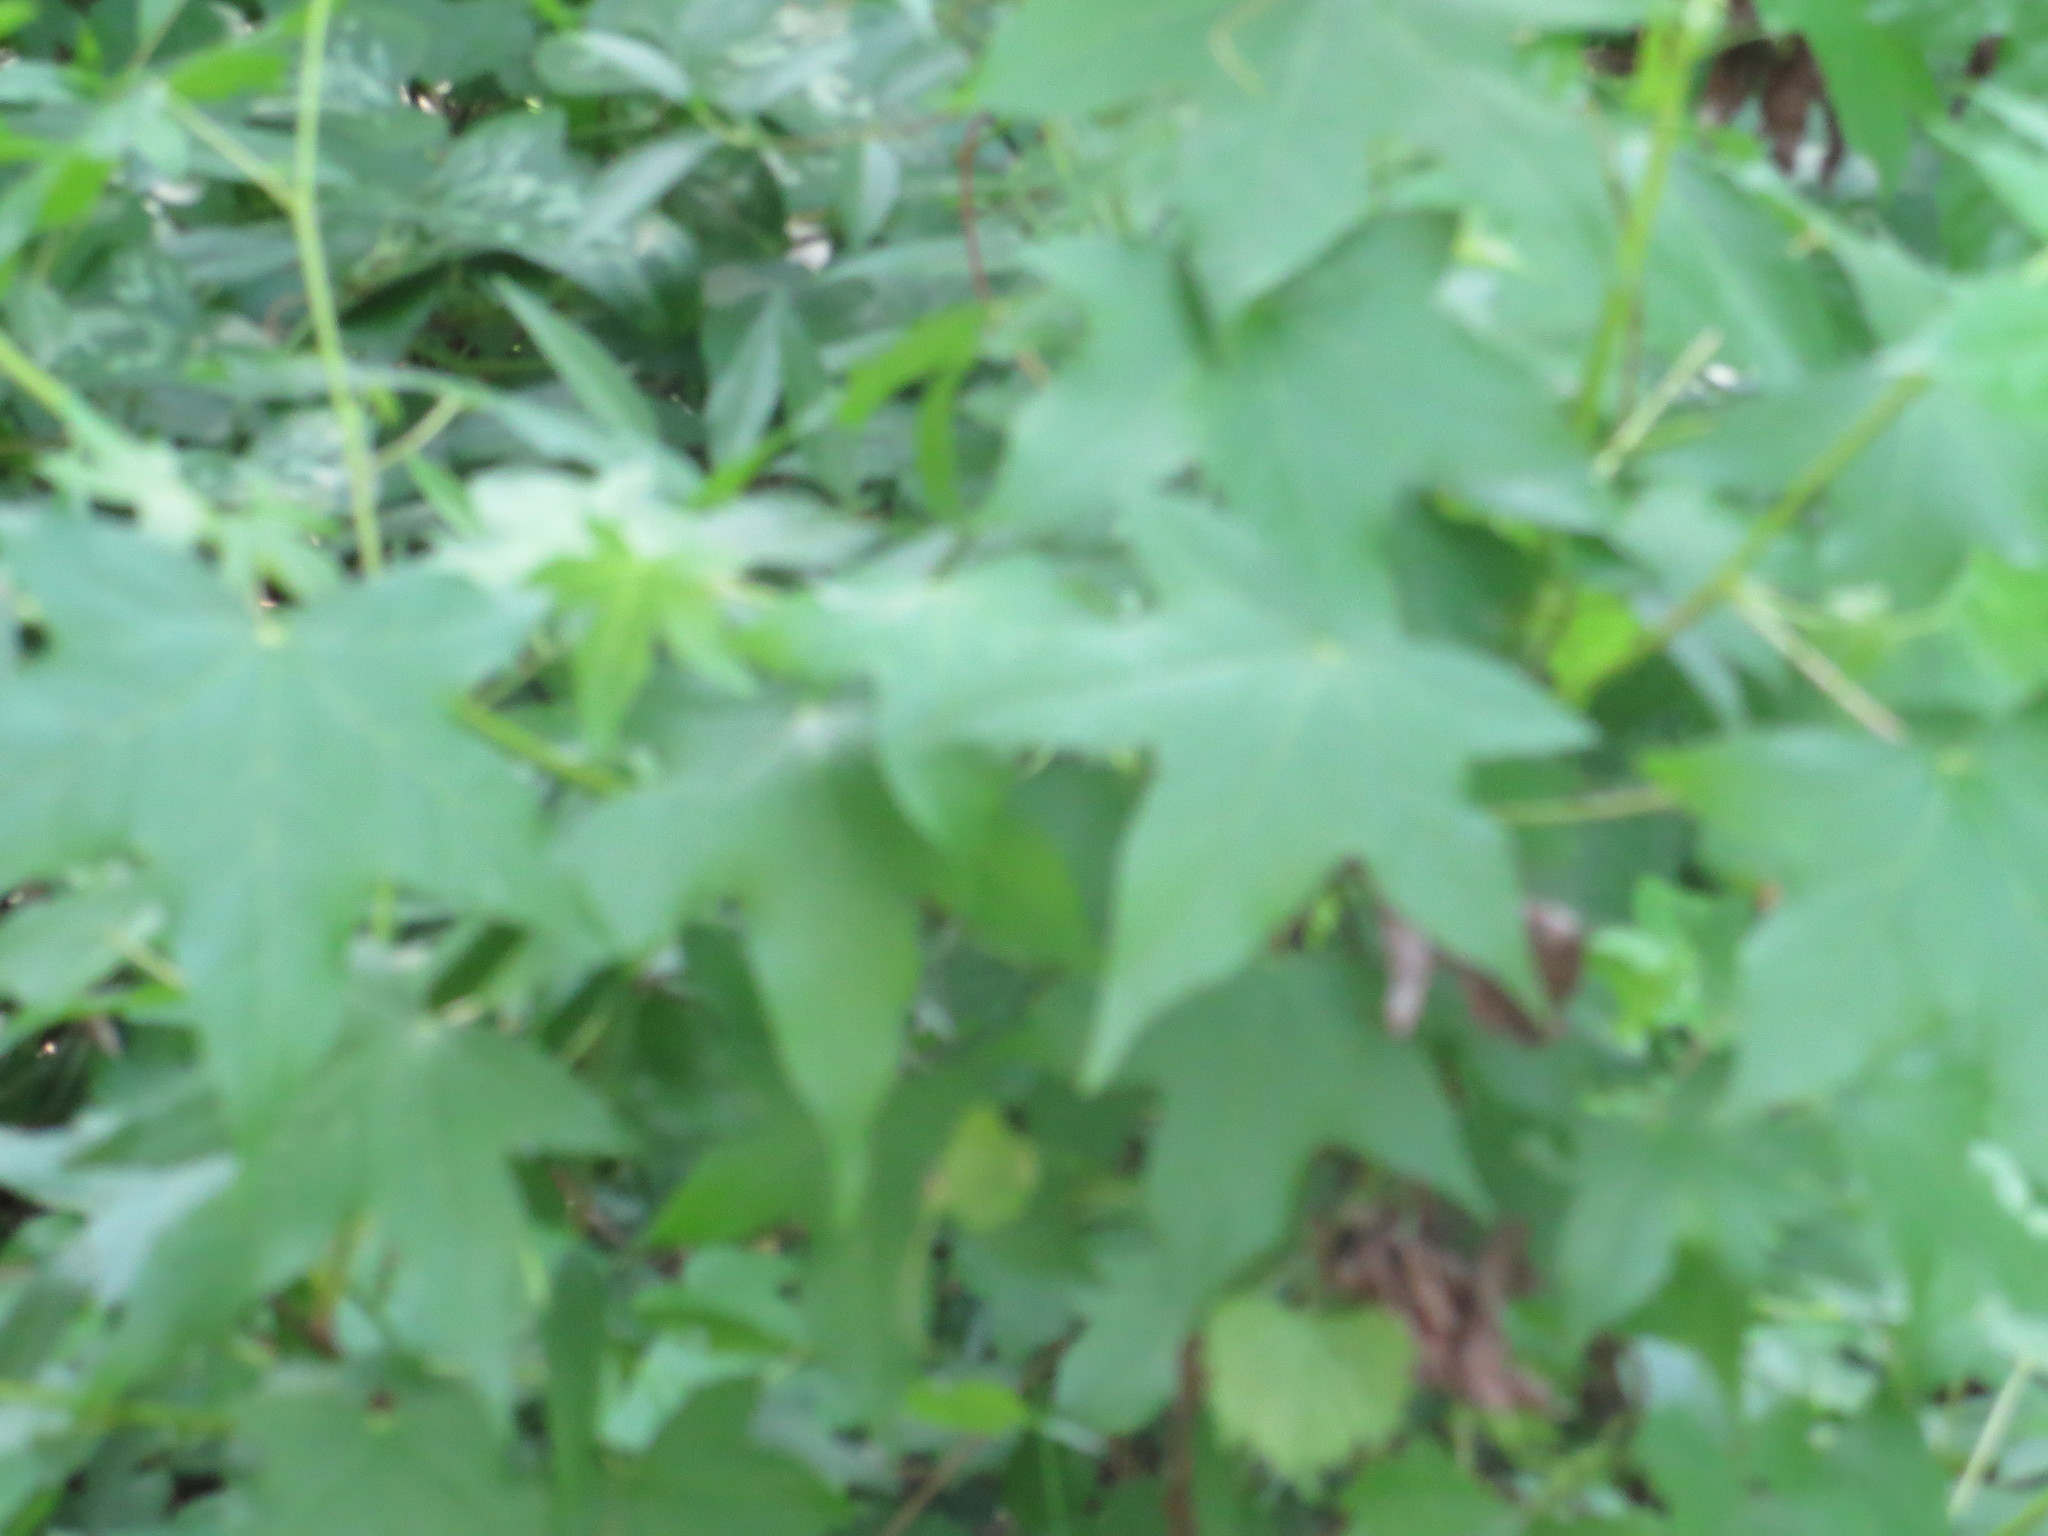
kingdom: Plantae
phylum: Tracheophyta
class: Magnoliopsida
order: Saxifragales
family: Altingiaceae
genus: Liquidambar
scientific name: Liquidambar styraciflua
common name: Sweet gum
